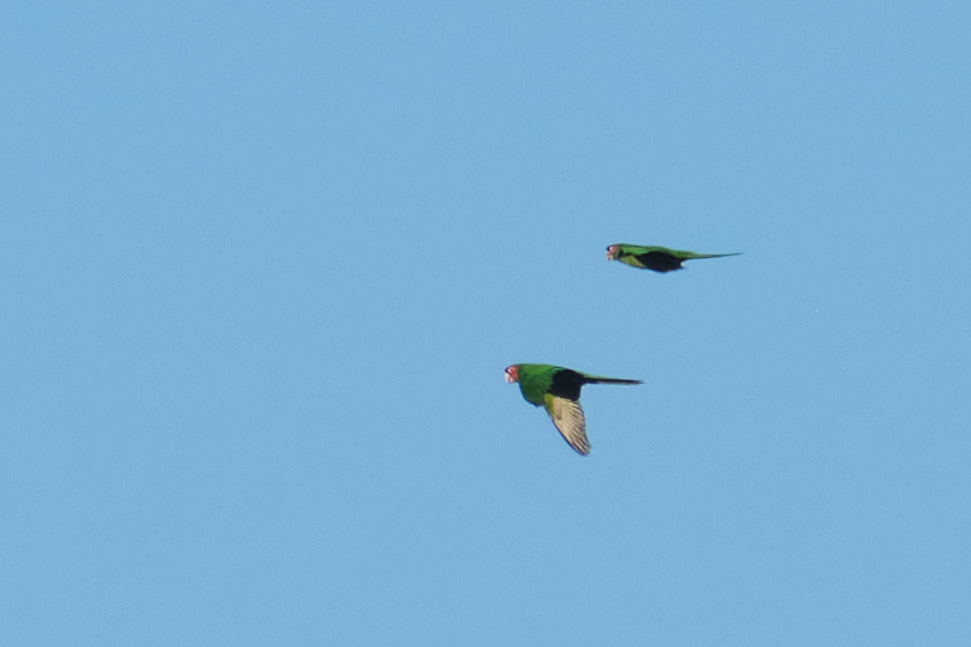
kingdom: Animalia
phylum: Chordata
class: Aves
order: Psittaciformes
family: Psittacidae
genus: Aratinga
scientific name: Aratinga mitrata
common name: Mitred parakeet
